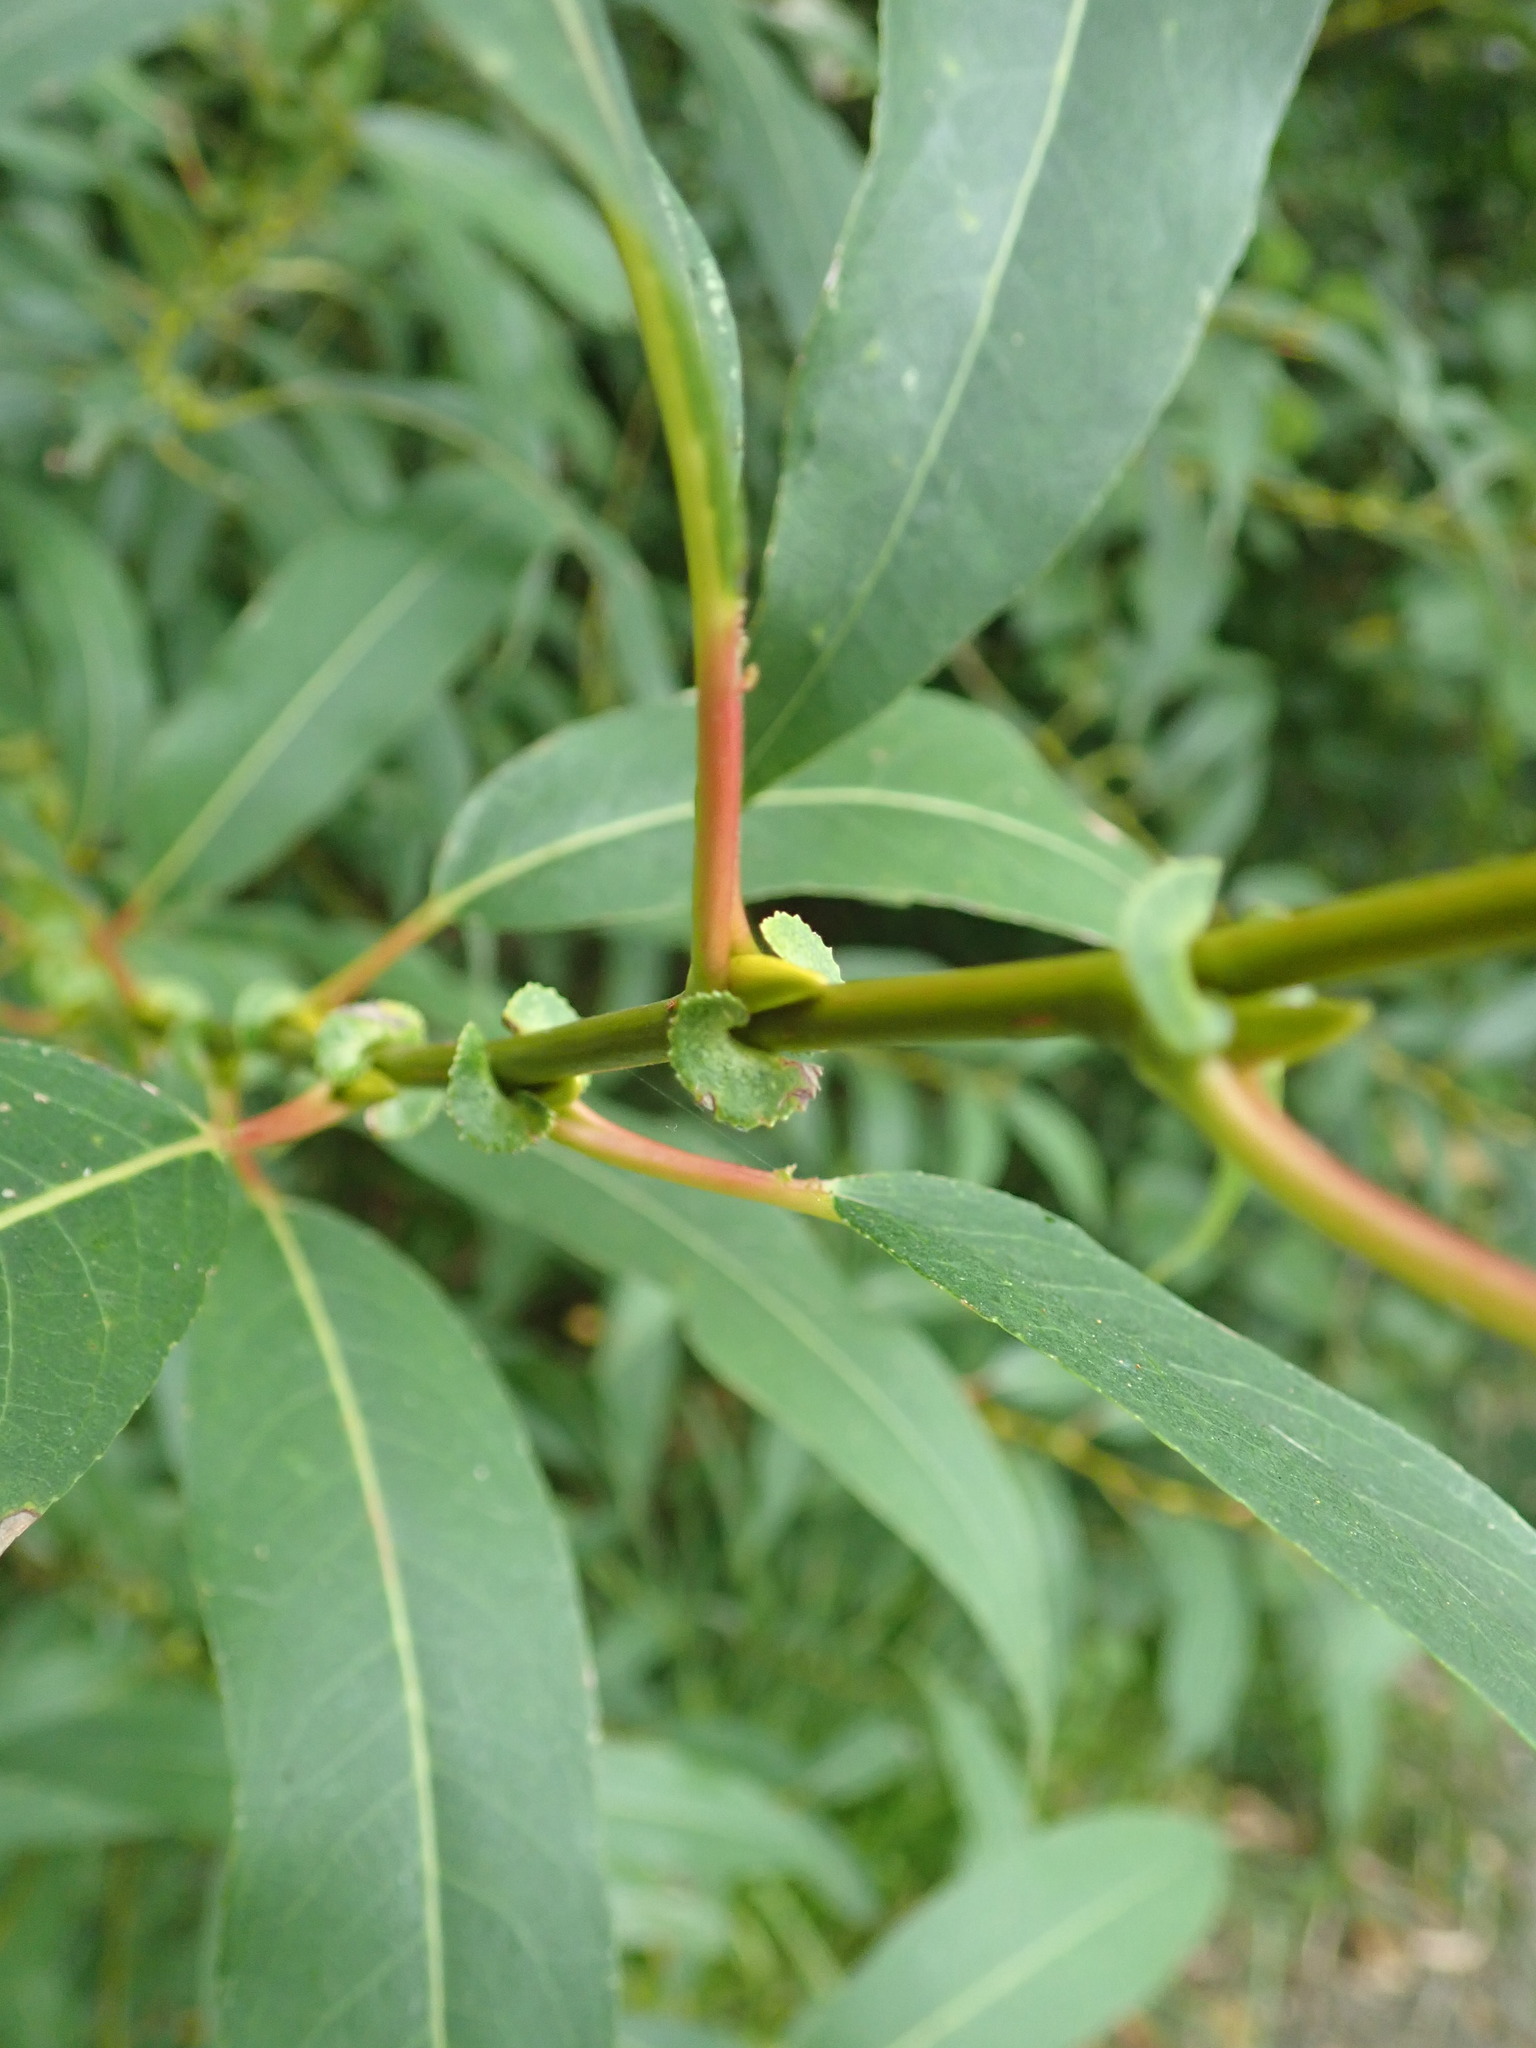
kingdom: Plantae
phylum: Tracheophyta
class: Magnoliopsida
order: Malpighiales
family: Salicaceae
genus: Salix
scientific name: Salix lucida
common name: Shining willow
